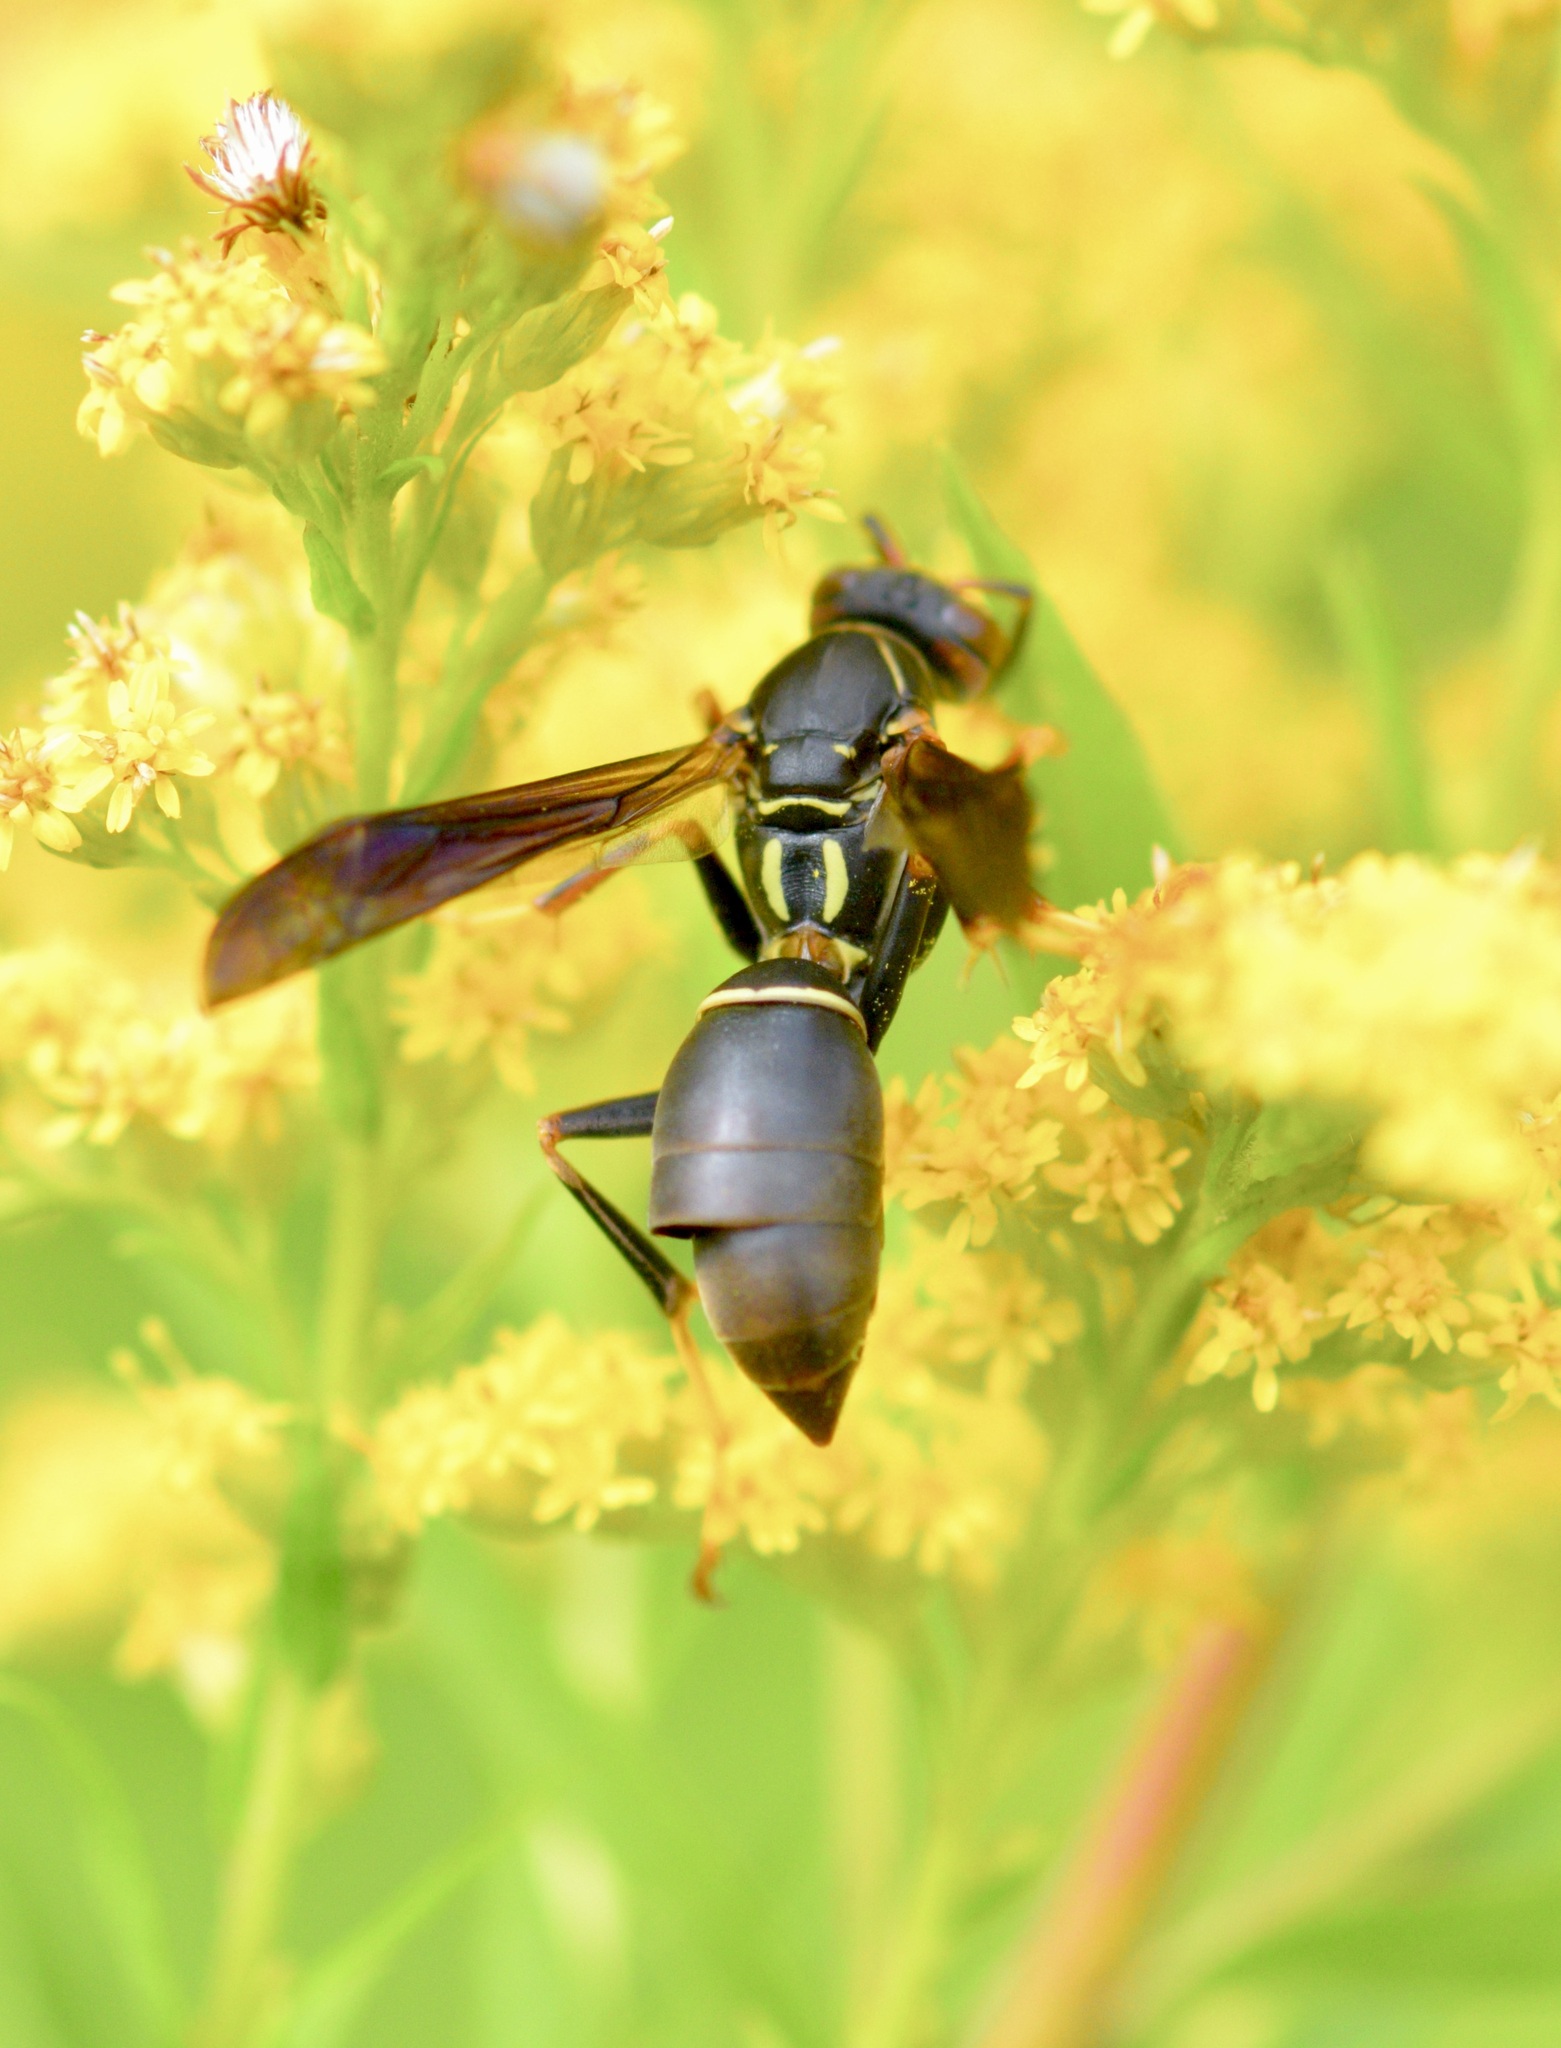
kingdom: Animalia
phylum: Arthropoda
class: Insecta
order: Hymenoptera
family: Eumenidae
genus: Polistes
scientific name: Polistes fuscatus
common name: Dark paper wasp
